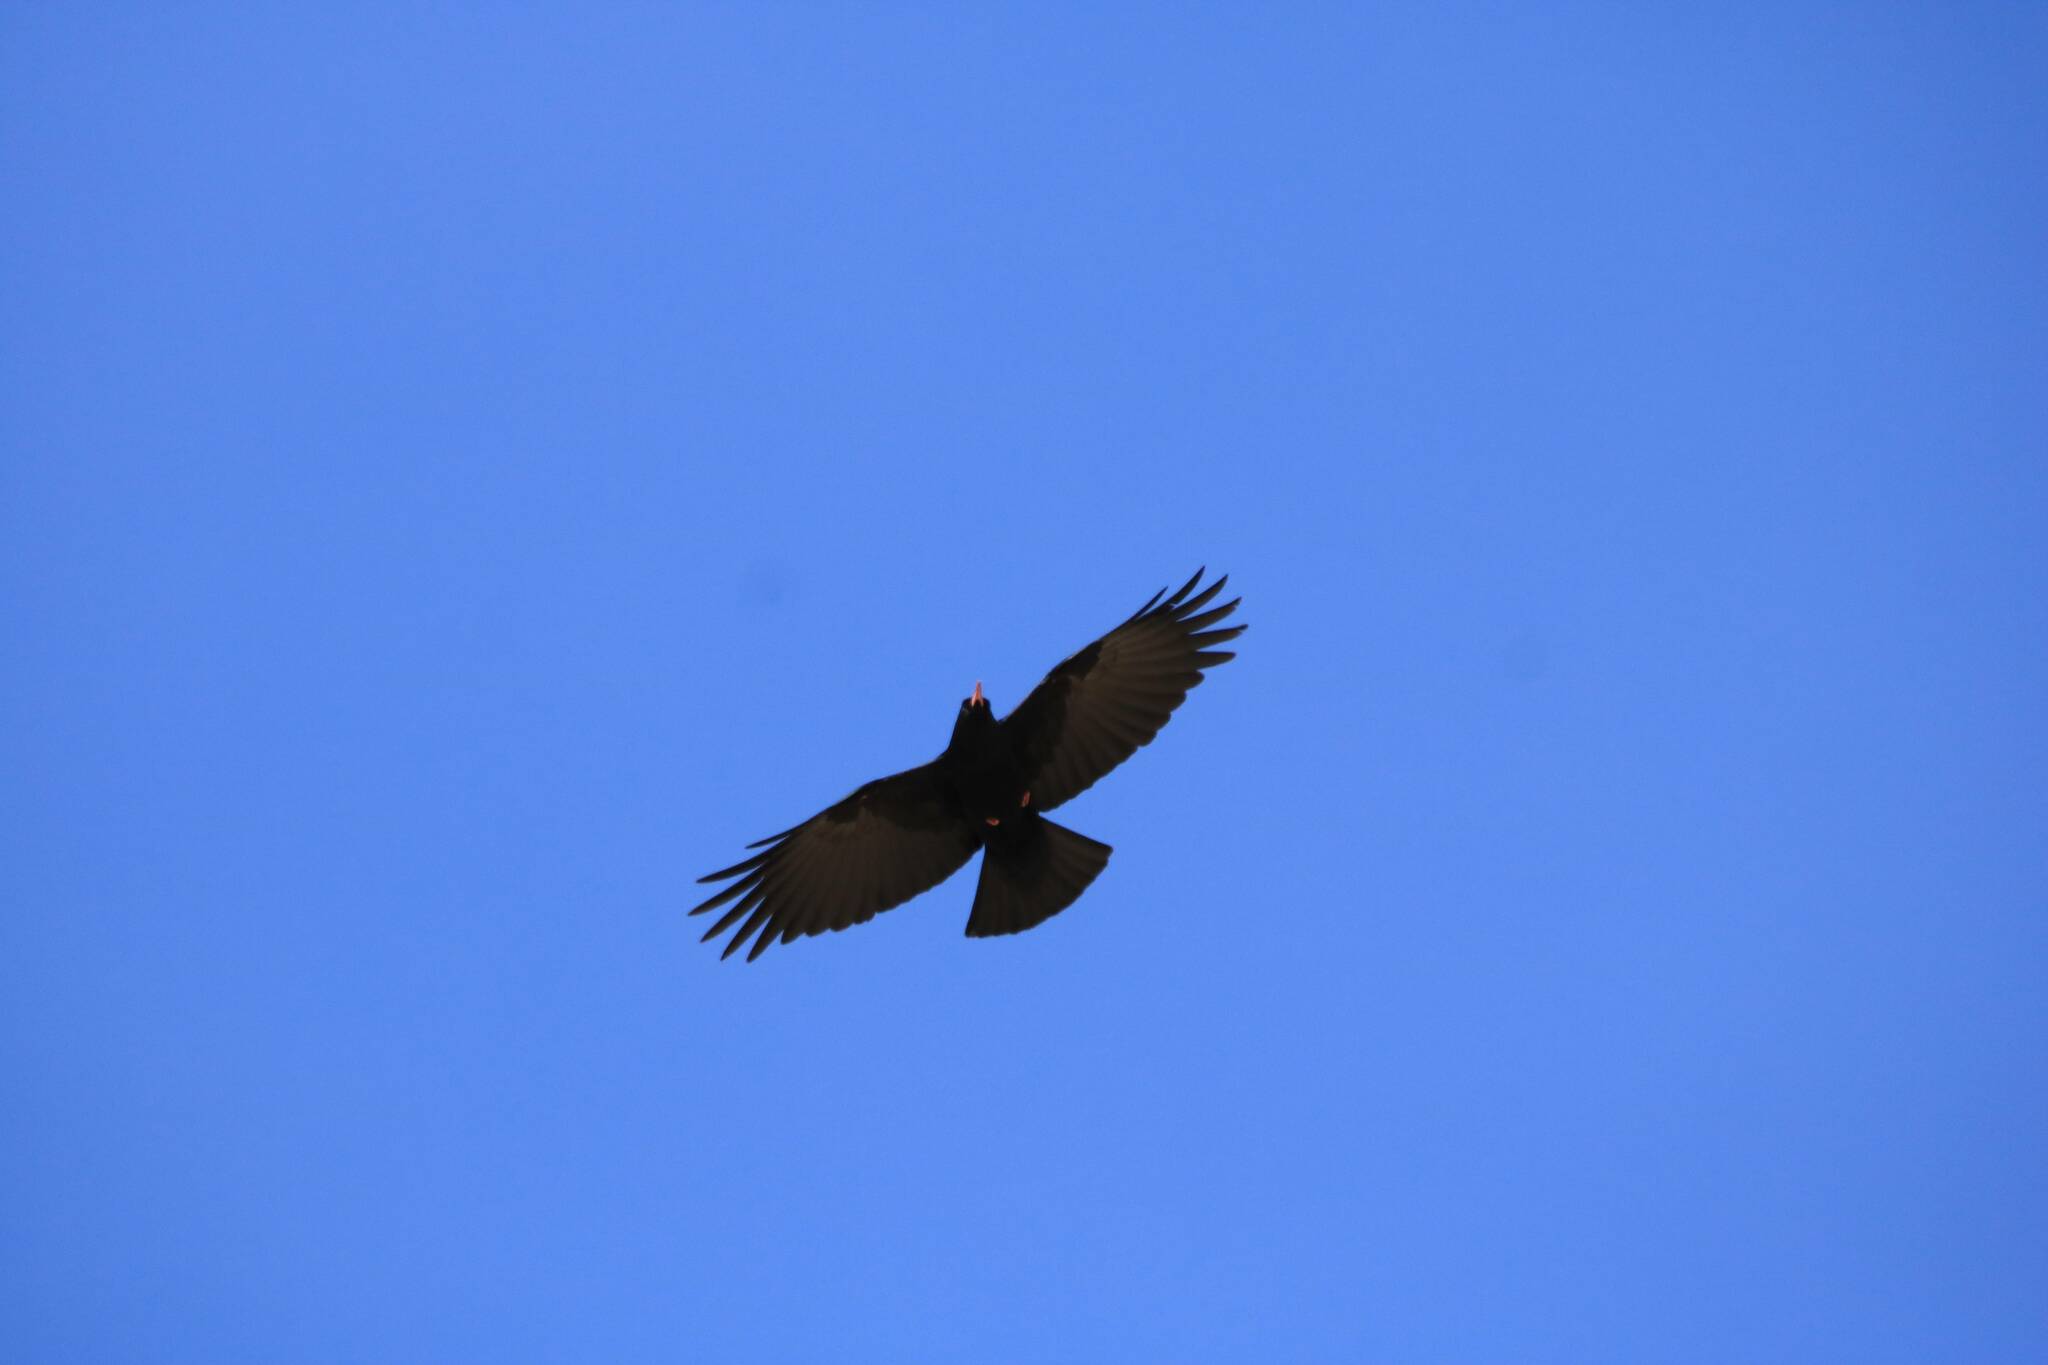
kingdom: Animalia
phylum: Chordata
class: Aves
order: Passeriformes
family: Corvidae
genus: Pyrrhocorax
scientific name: Pyrrhocorax pyrrhocorax
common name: Red-billed chough
